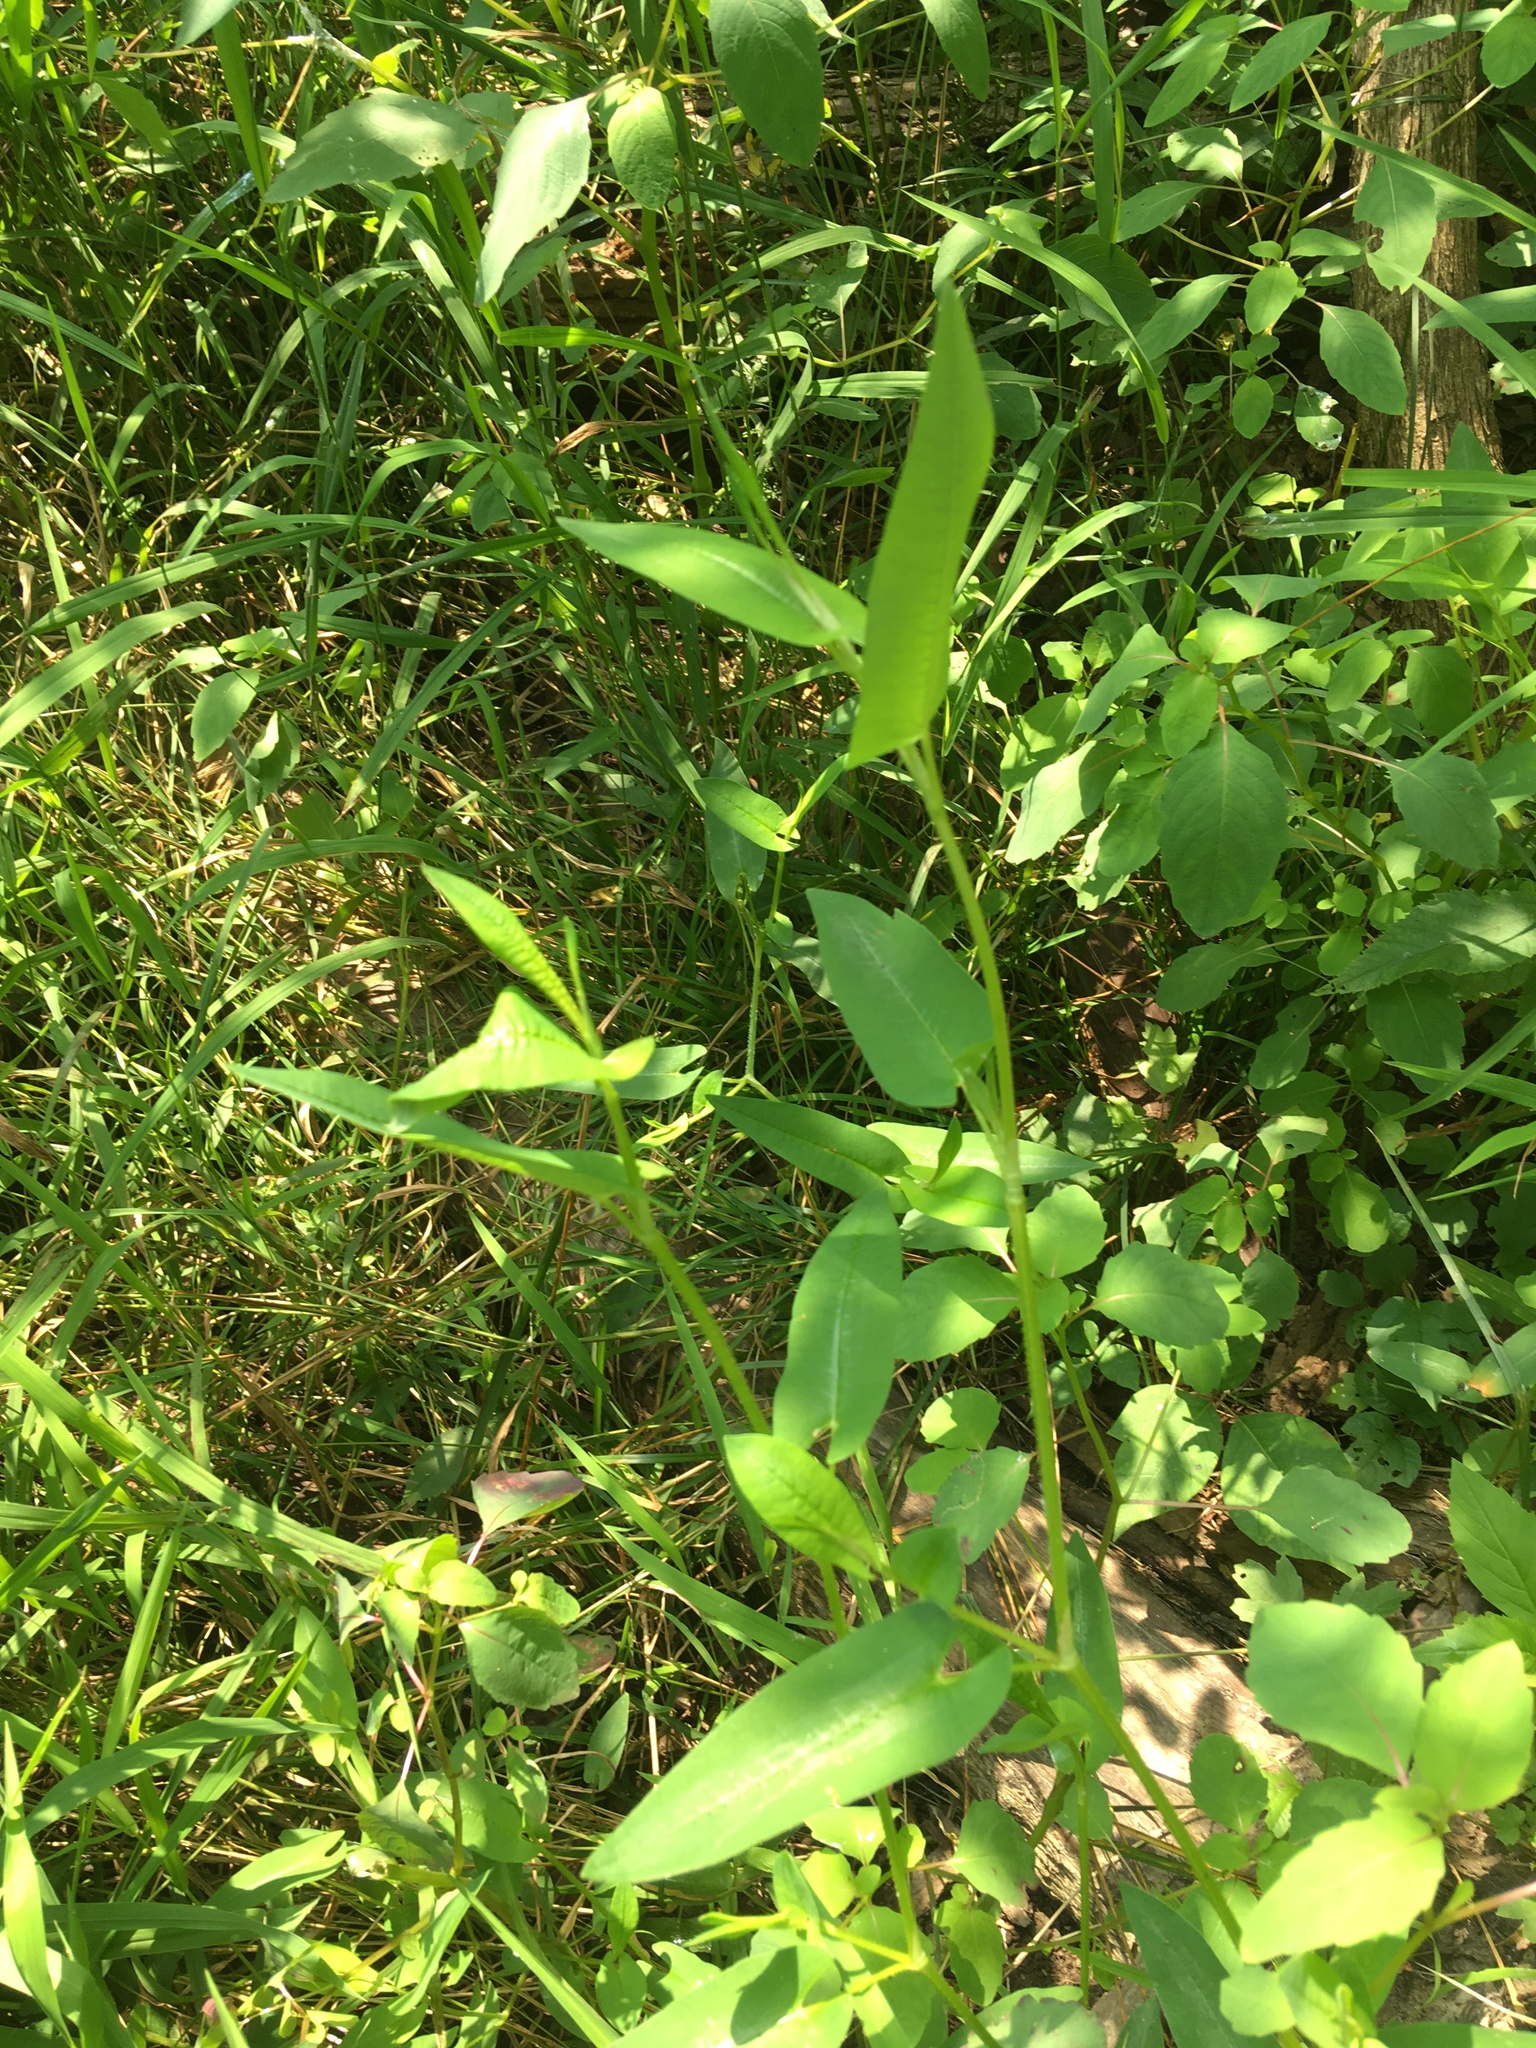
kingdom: Plantae
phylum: Tracheophyta
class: Magnoliopsida
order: Caryophyllales
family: Polygonaceae
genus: Persicaria
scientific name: Persicaria sagittata
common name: American tearthumb
